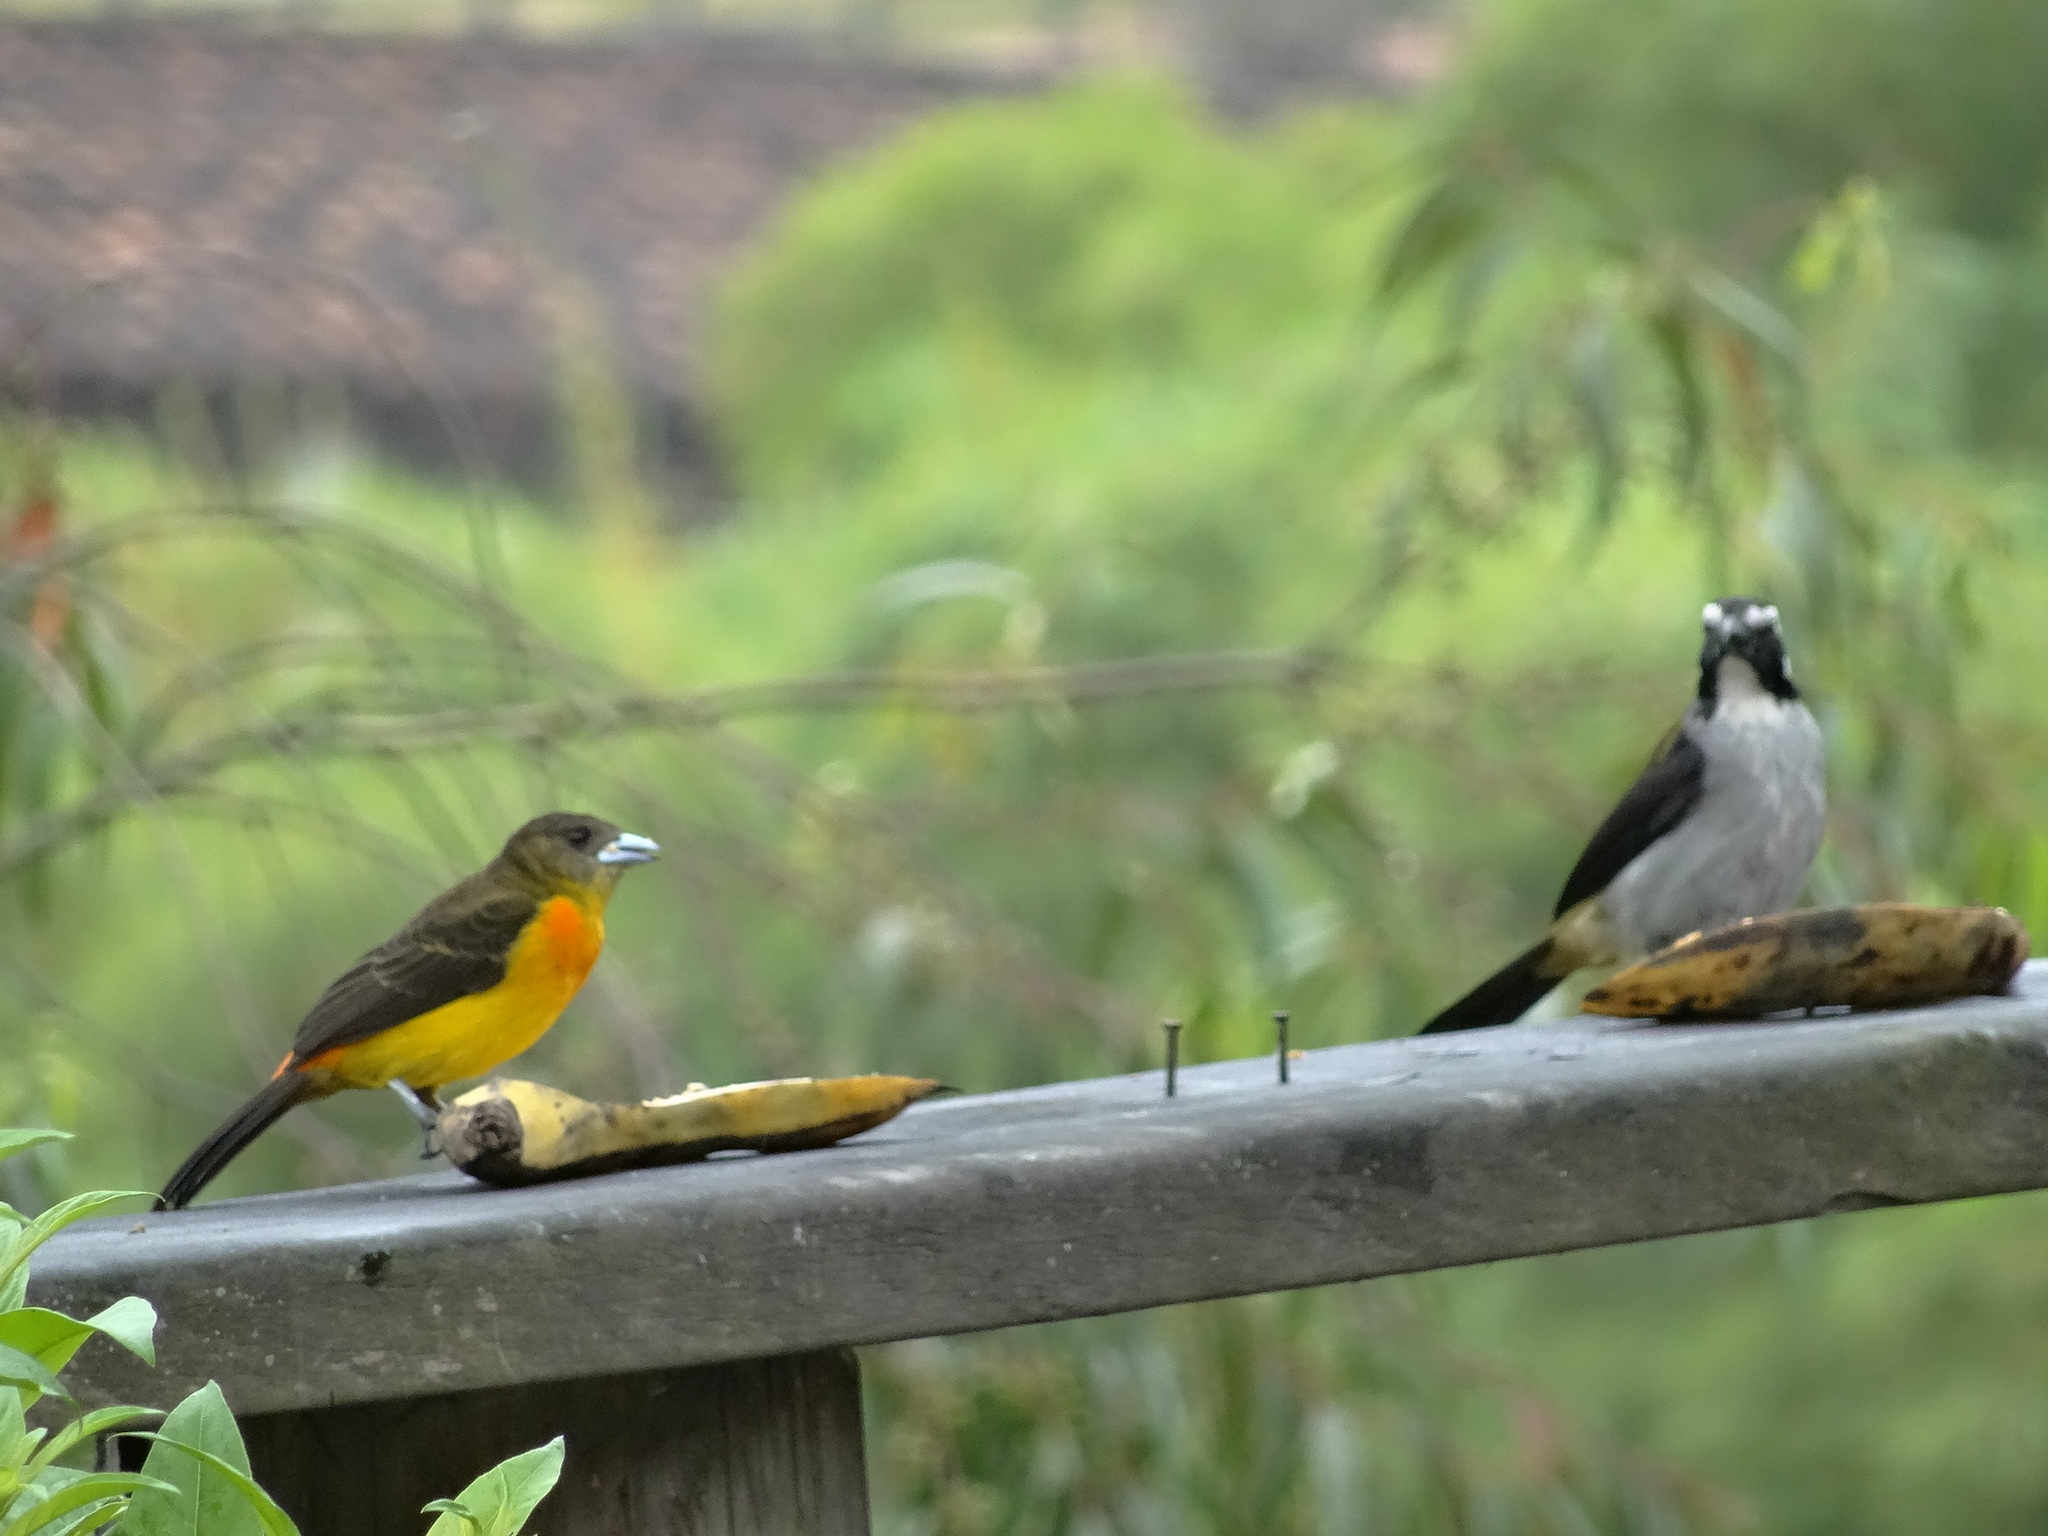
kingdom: Animalia
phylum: Chordata
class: Aves
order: Passeriformes
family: Thraupidae
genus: Ramphocelus
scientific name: Ramphocelus flammigerus
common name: Flame-rumped tanager
